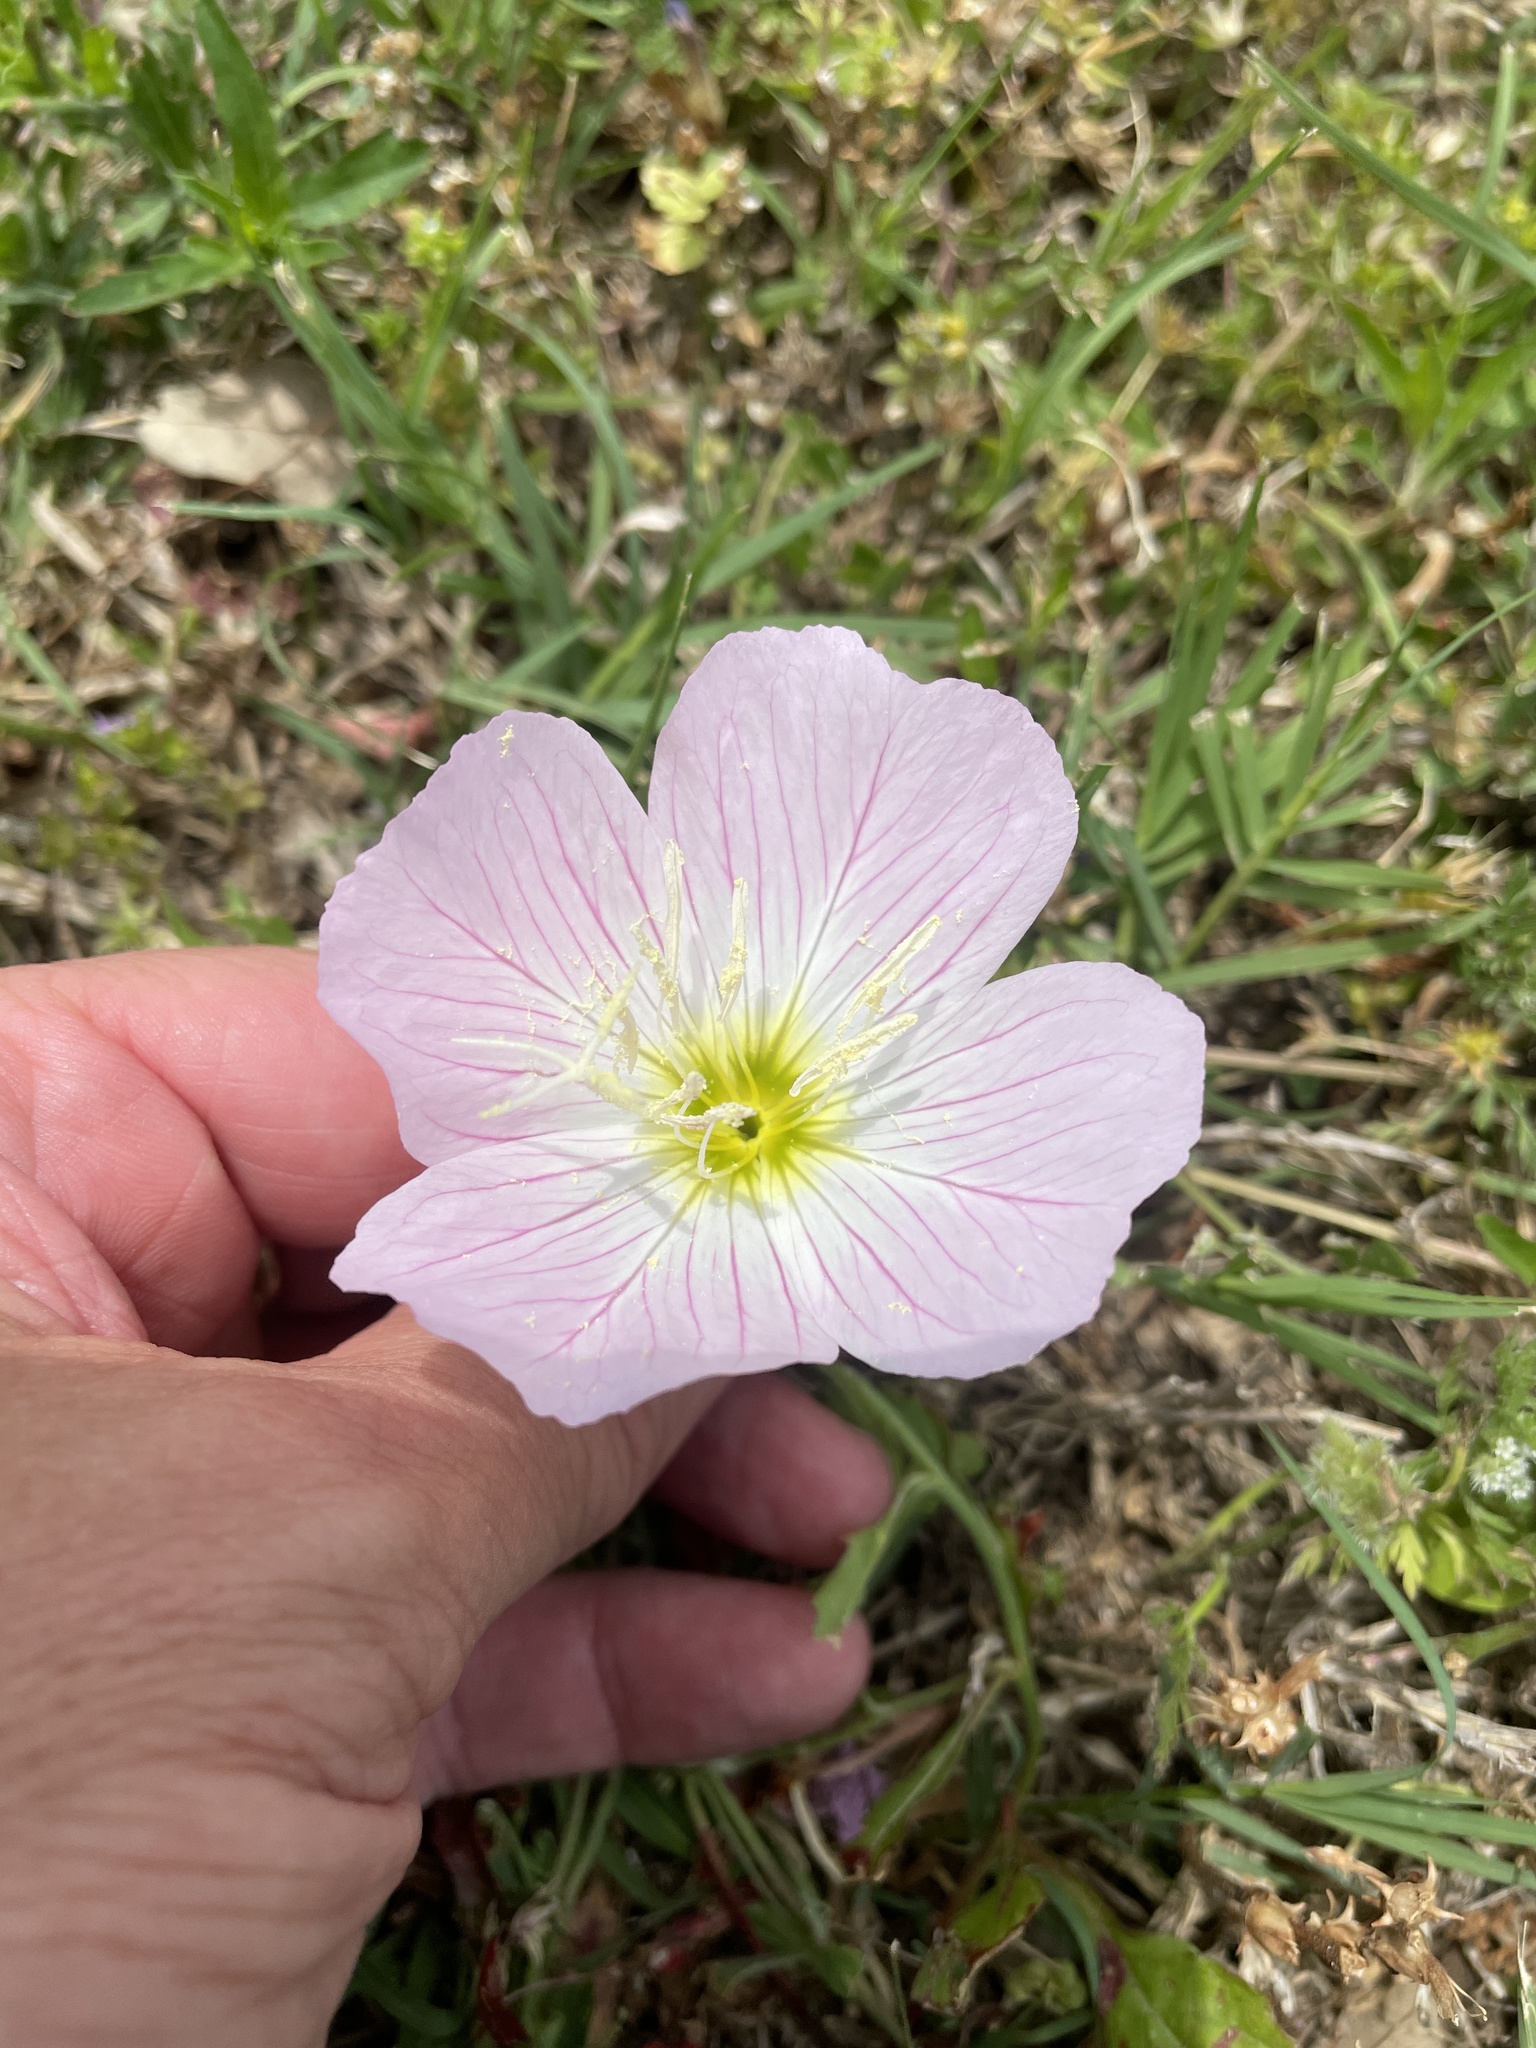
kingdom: Plantae
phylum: Tracheophyta
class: Magnoliopsida
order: Myrtales
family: Onagraceae
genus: Oenothera
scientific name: Oenothera speciosa
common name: White evening-primrose
